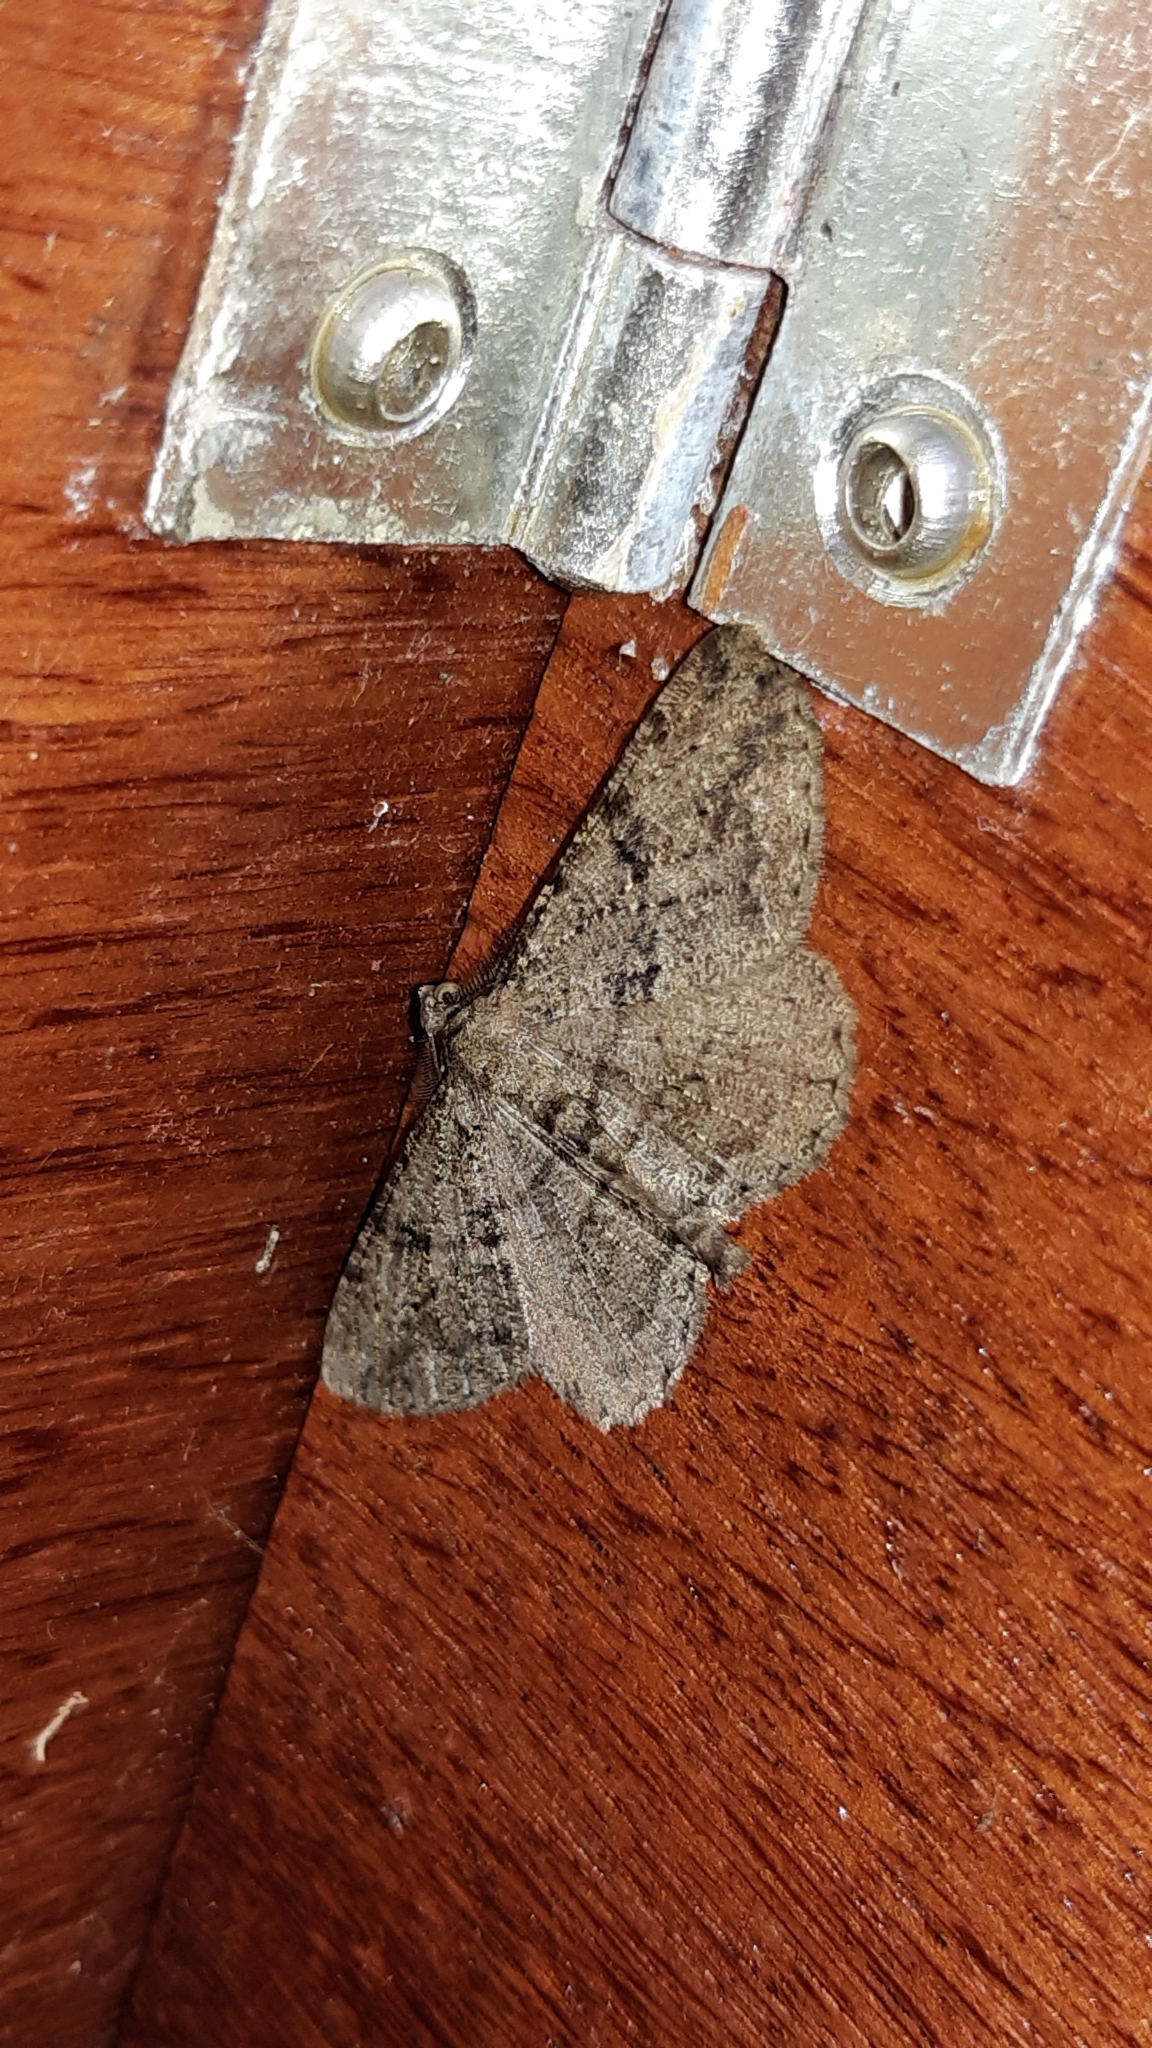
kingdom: Animalia
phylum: Arthropoda
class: Insecta
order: Lepidoptera
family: Geometridae
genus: Peribatodes
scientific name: Peribatodes rhomboidaria
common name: Willow beauty
